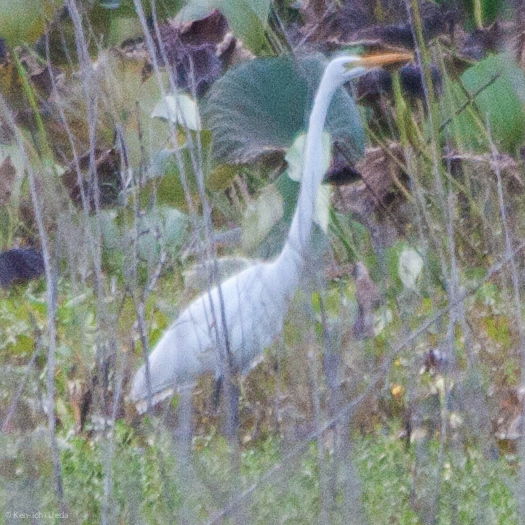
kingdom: Animalia
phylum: Chordata
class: Aves
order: Pelecaniformes
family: Ardeidae
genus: Ardea
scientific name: Ardea alba
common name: Great egret
